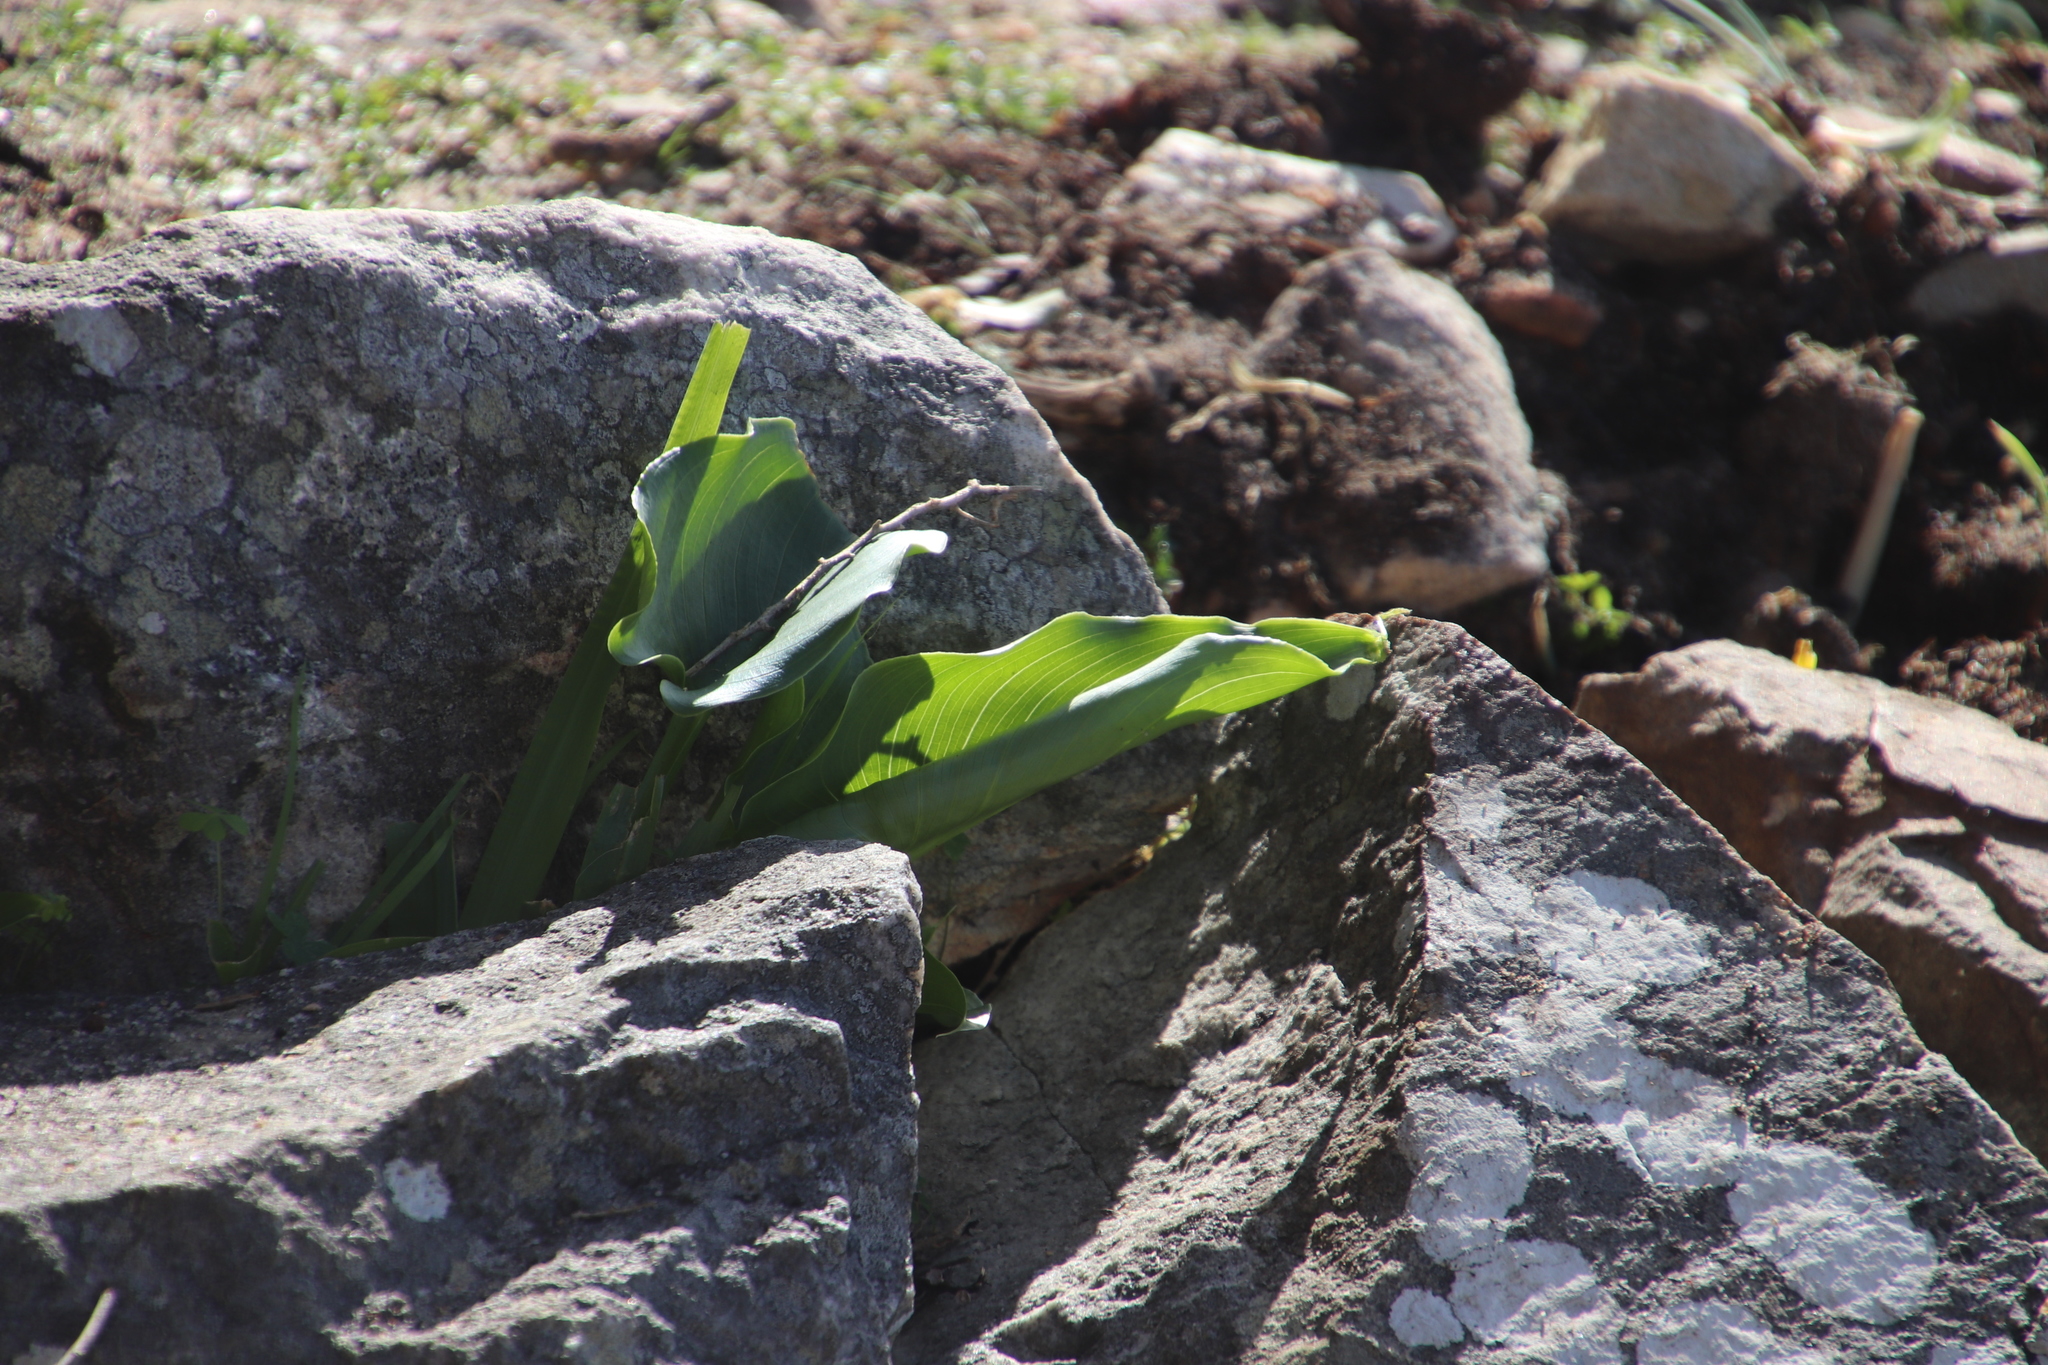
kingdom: Plantae
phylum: Tracheophyta
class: Liliopsida
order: Alismatales
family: Araceae
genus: Zantedeschia
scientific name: Zantedeschia aethiopica
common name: Altar-lily
